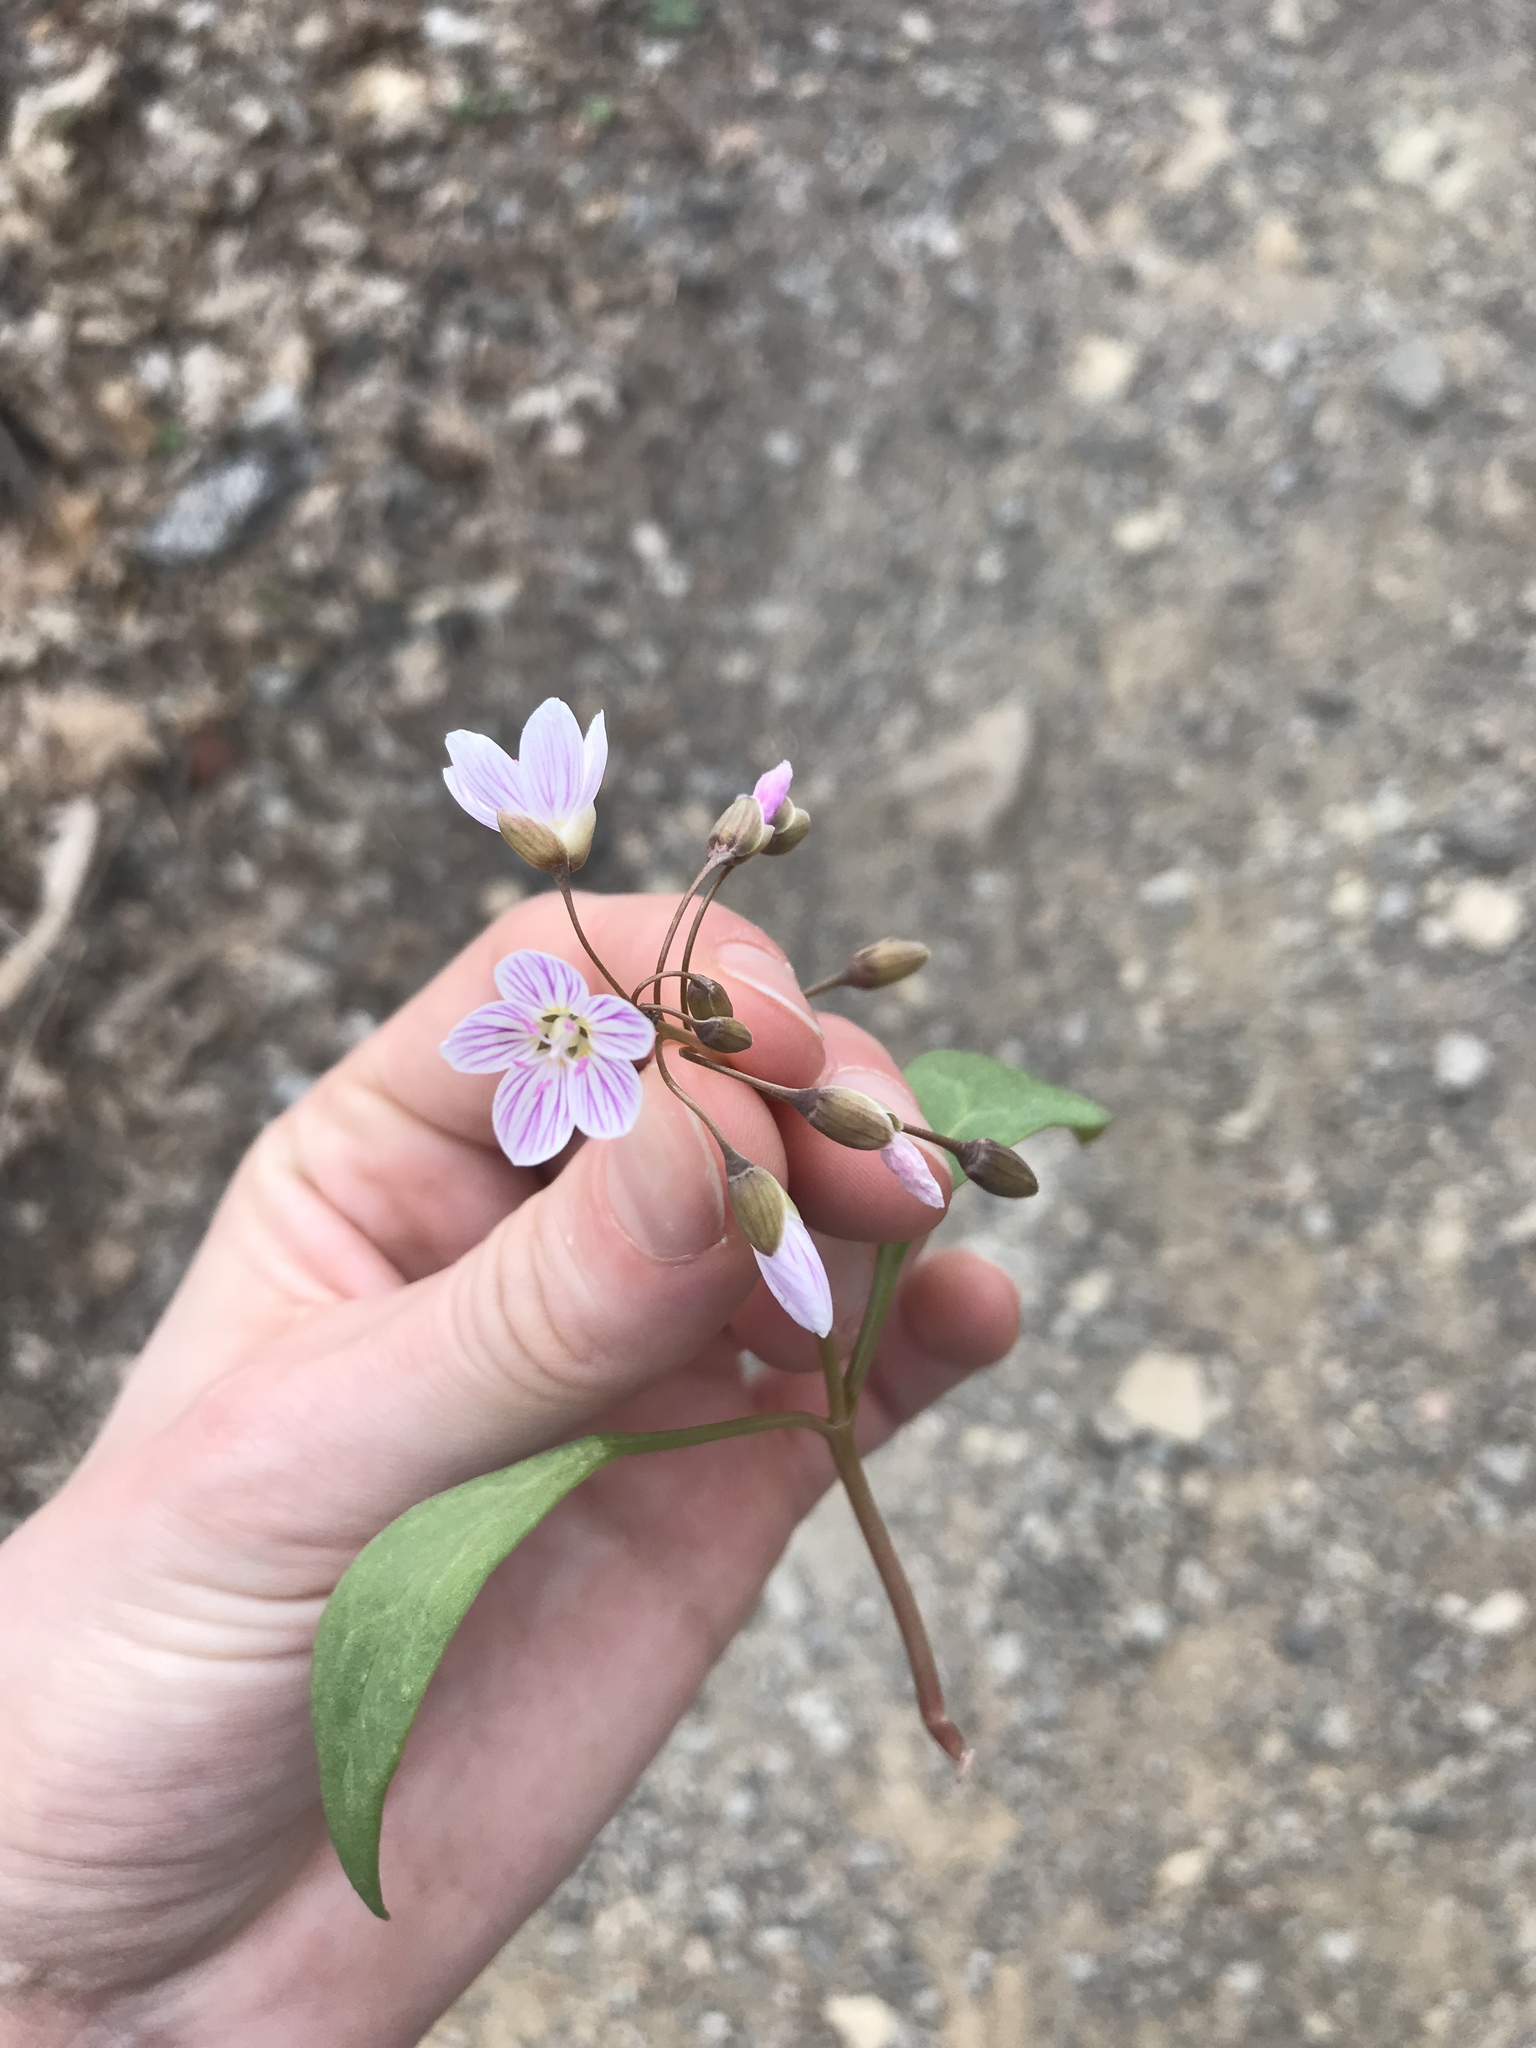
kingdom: Plantae
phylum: Tracheophyta
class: Magnoliopsida
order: Caryophyllales
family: Montiaceae
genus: Claytonia
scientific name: Claytonia caroliniana
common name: Carolina spring beauty
